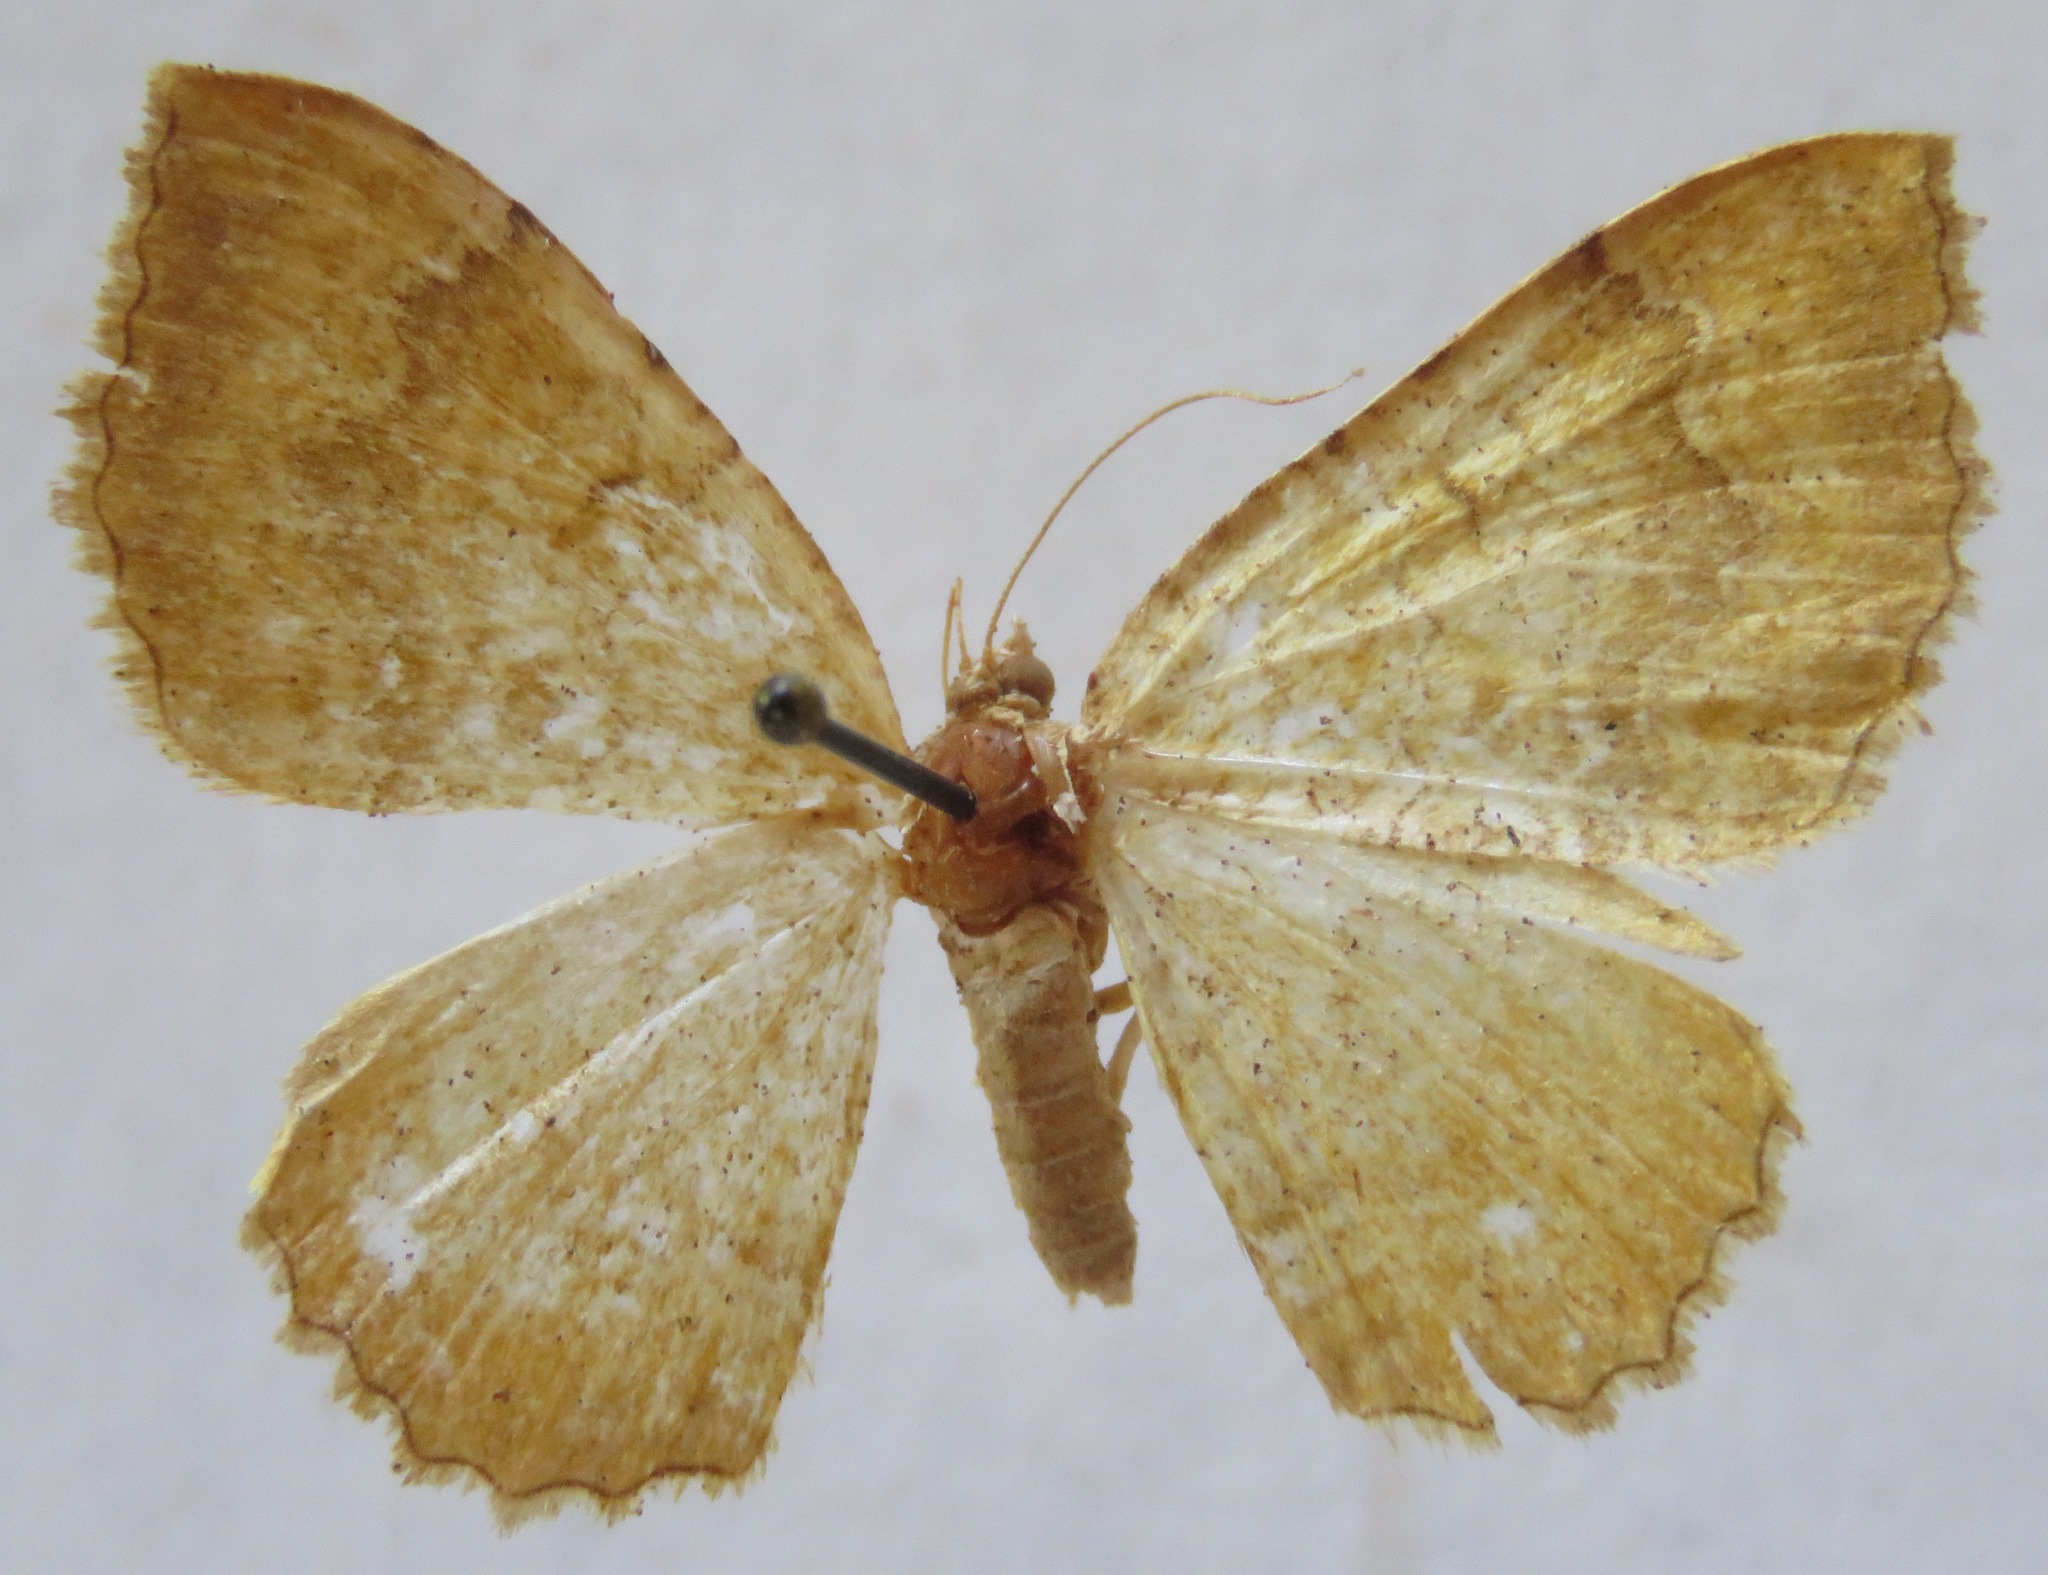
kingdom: Animalia
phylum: Arthropoda
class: Insecta
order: Lepidoptera
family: Geometridae
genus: Camptogramma
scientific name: Camptogramma bilineata
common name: Yellow shell
